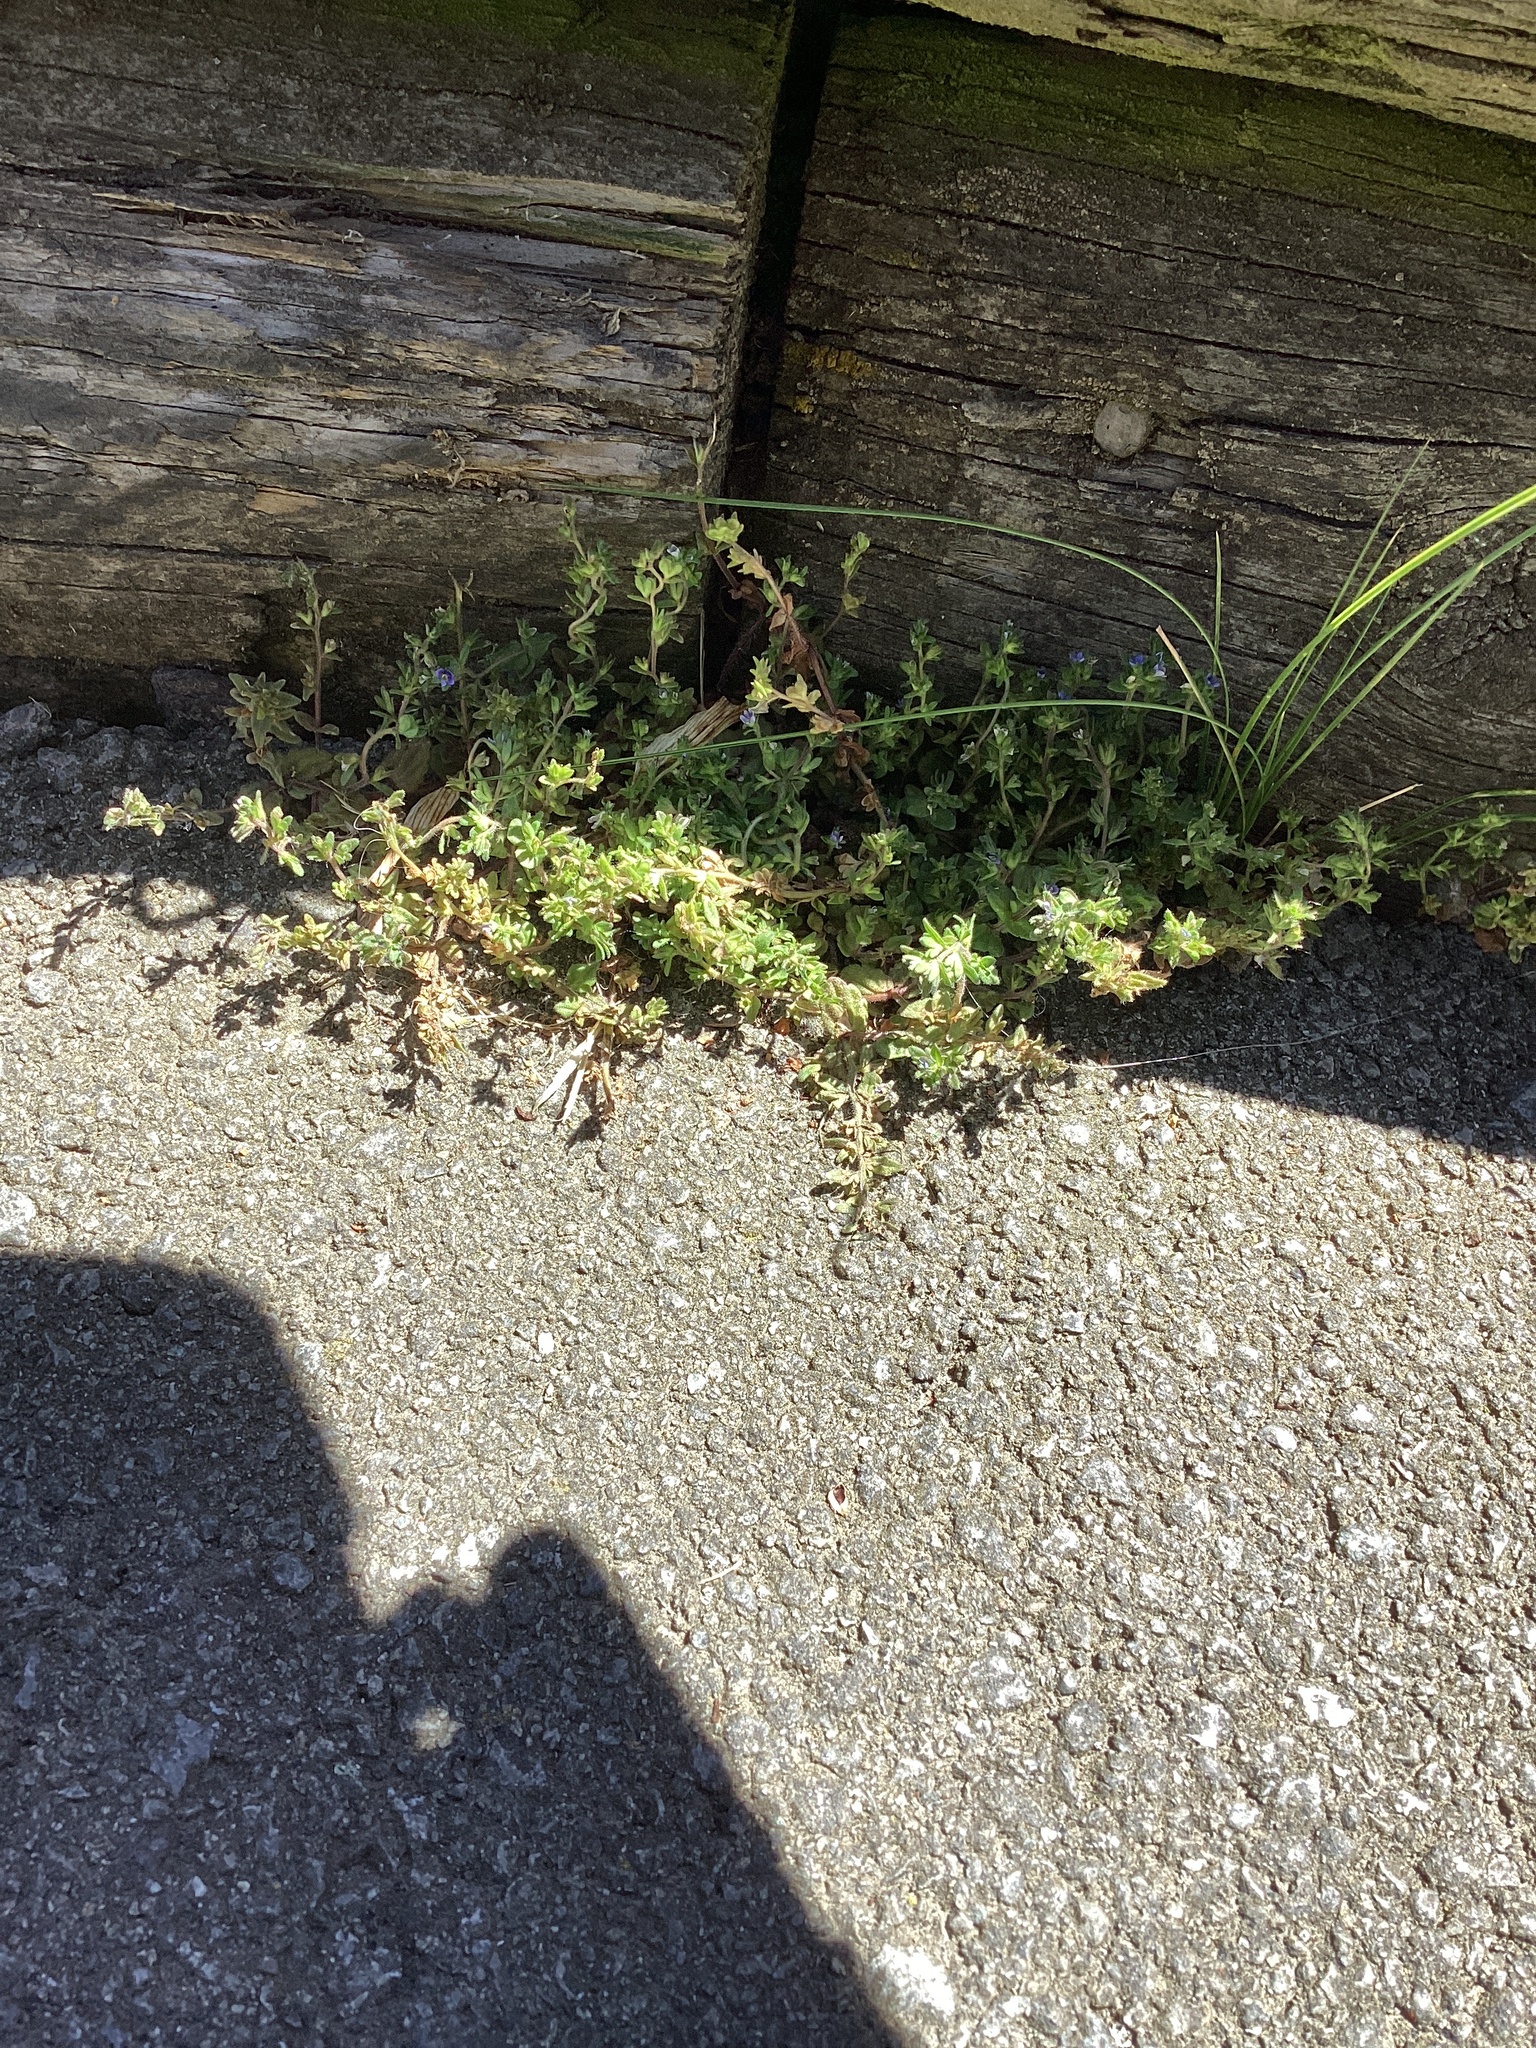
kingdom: Plantae
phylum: Tracheophyta
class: Magnoliopsida
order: Lamiales
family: Plantaginaceae
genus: Veronica
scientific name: Veronica arvensis
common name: Corn speedwell
